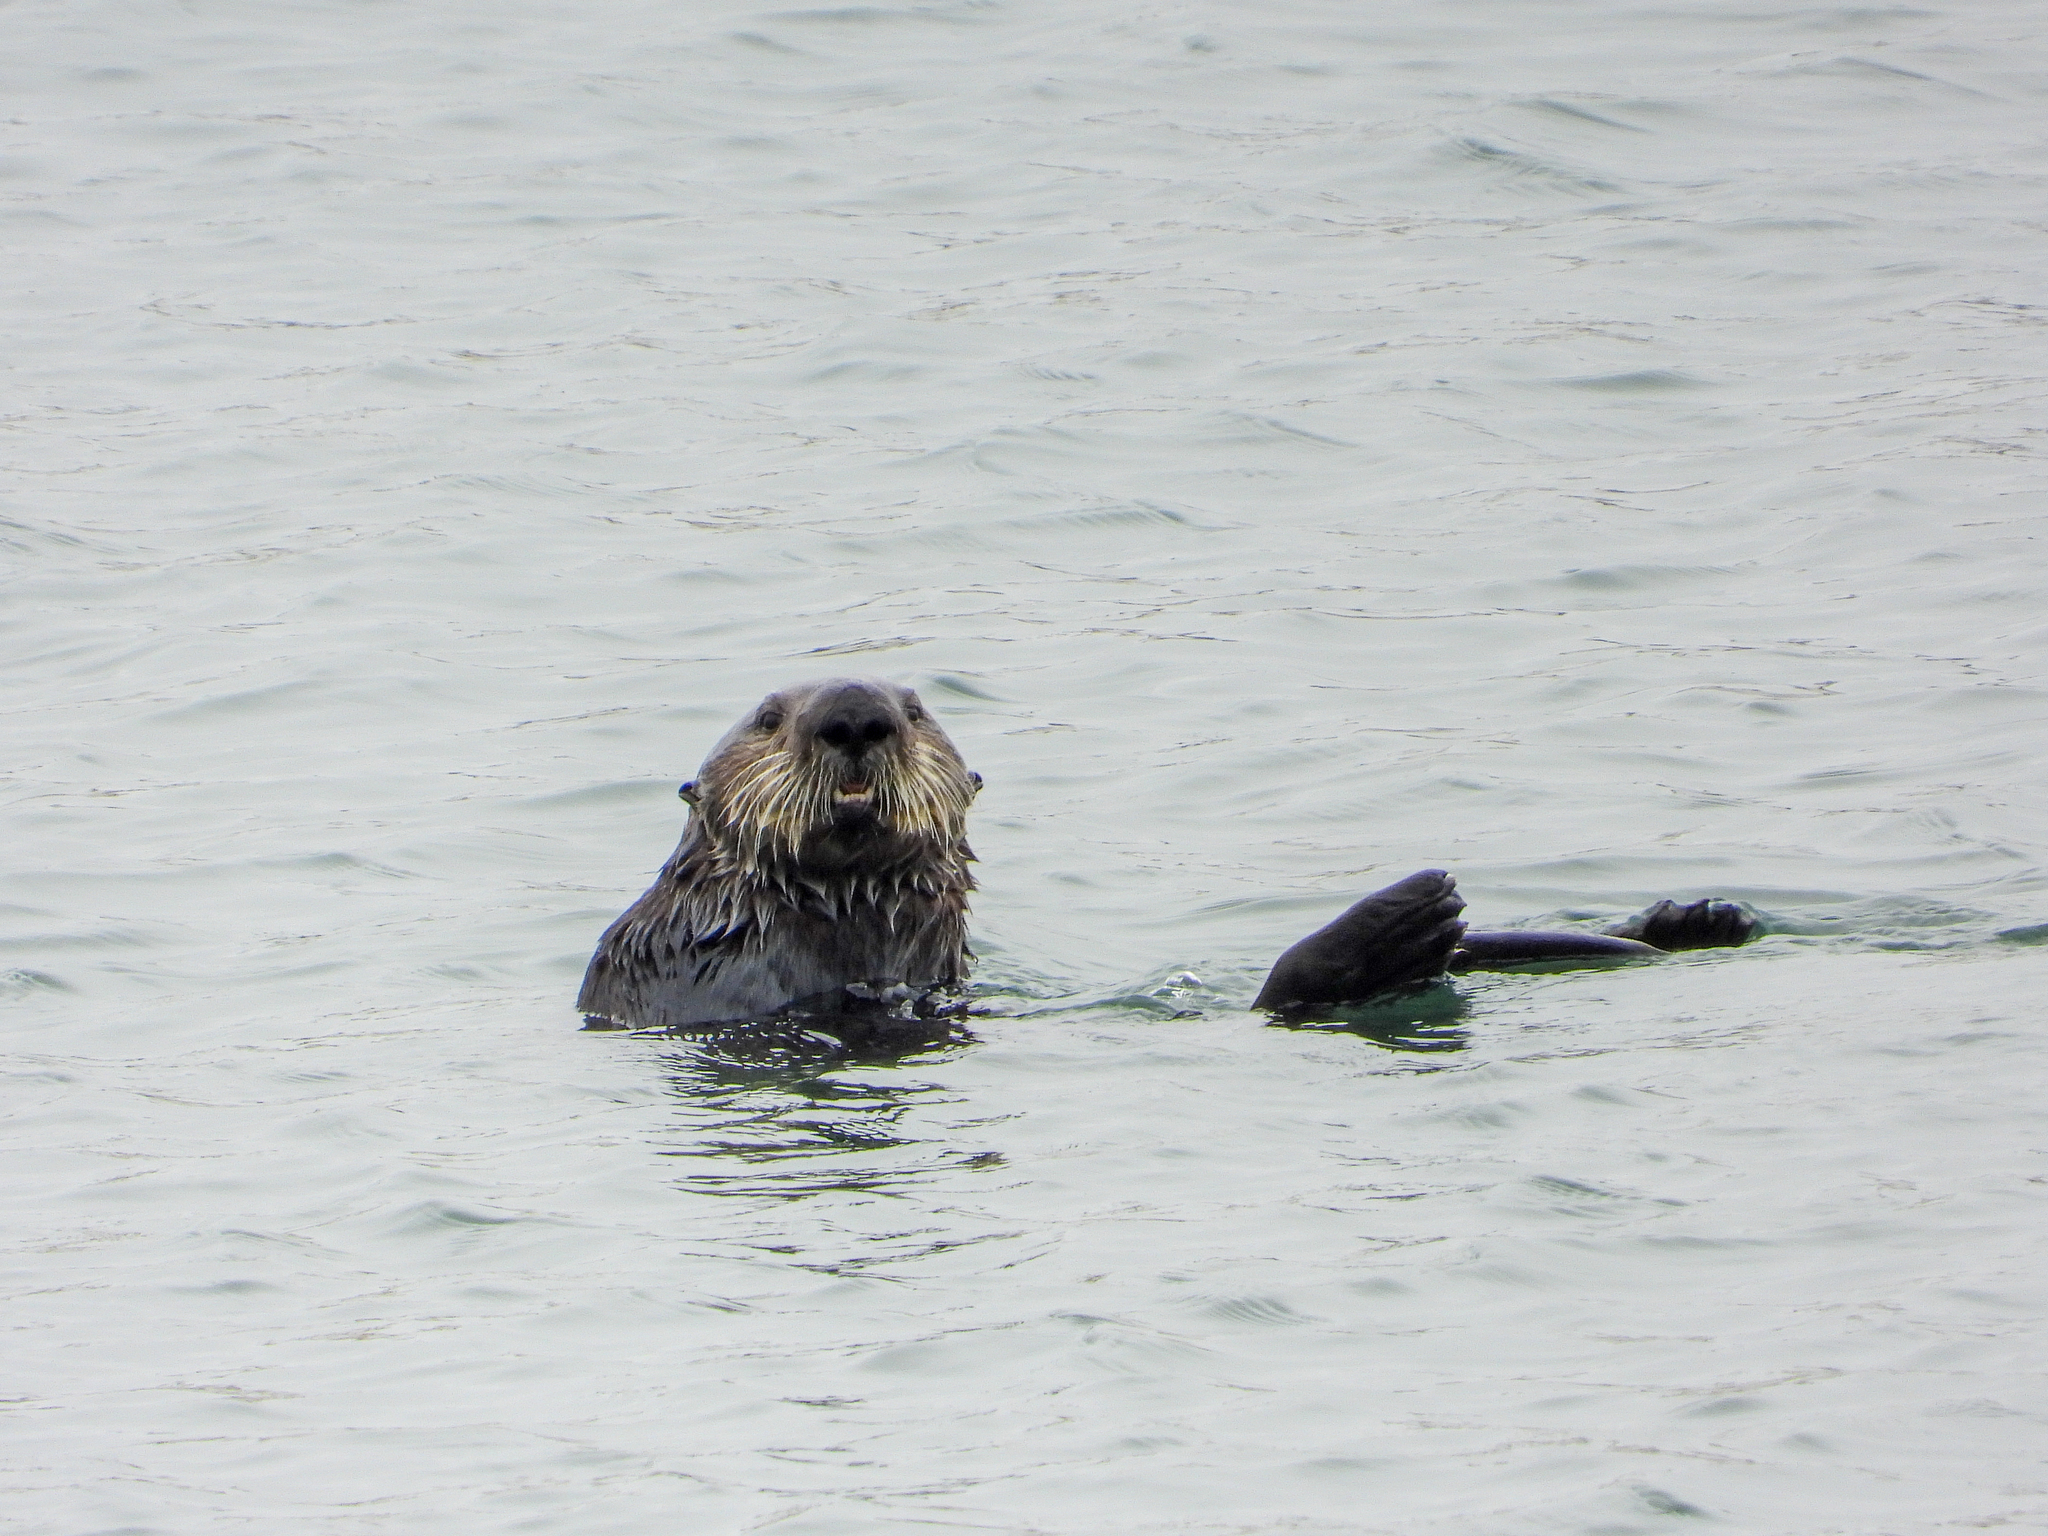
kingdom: Animalia
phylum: Chordata
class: Mammalia
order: Carnivora
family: Mustelidae
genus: Enhydra
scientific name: Enhydra lutris
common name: Sea otter
